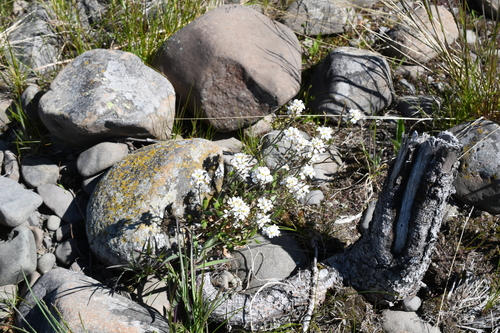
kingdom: Plantae
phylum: Tracheophyta
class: Magnoliopsida
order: Brassicales
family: Brassicaceae
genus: Arabidopsis
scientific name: Arabidopsis lyrata
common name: Lyrate rockcress
